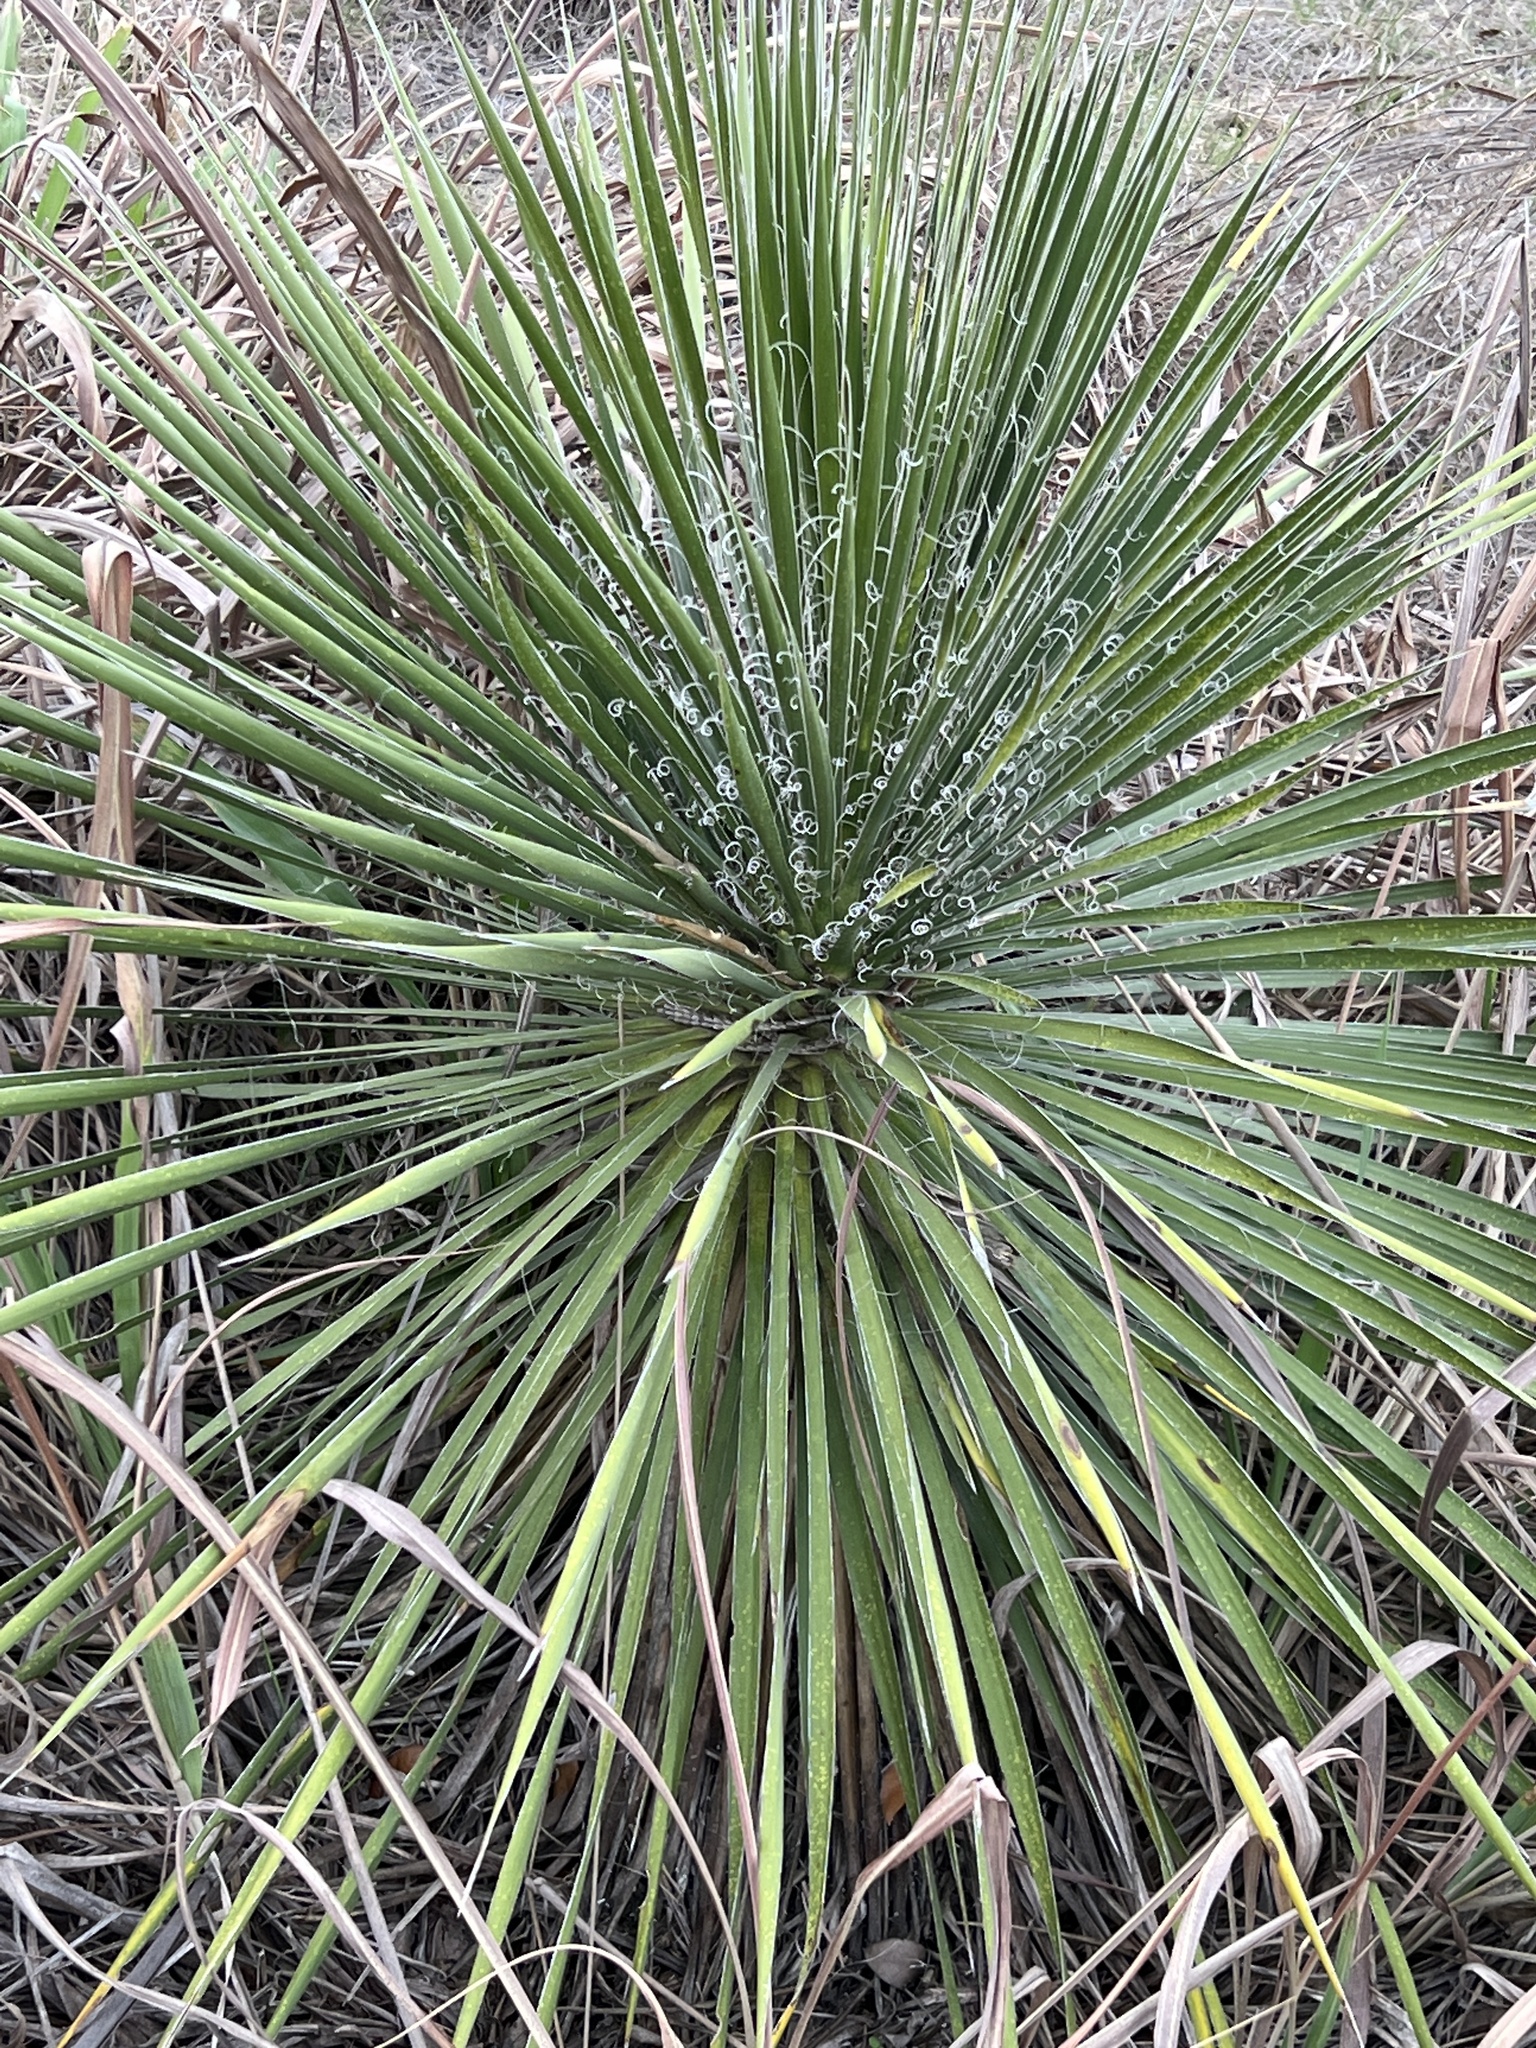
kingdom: Plantae
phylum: Tracheophyta
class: Liliopsida
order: Asparagales
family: Asparagaceae
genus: Yucca
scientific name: Yucca constricta
